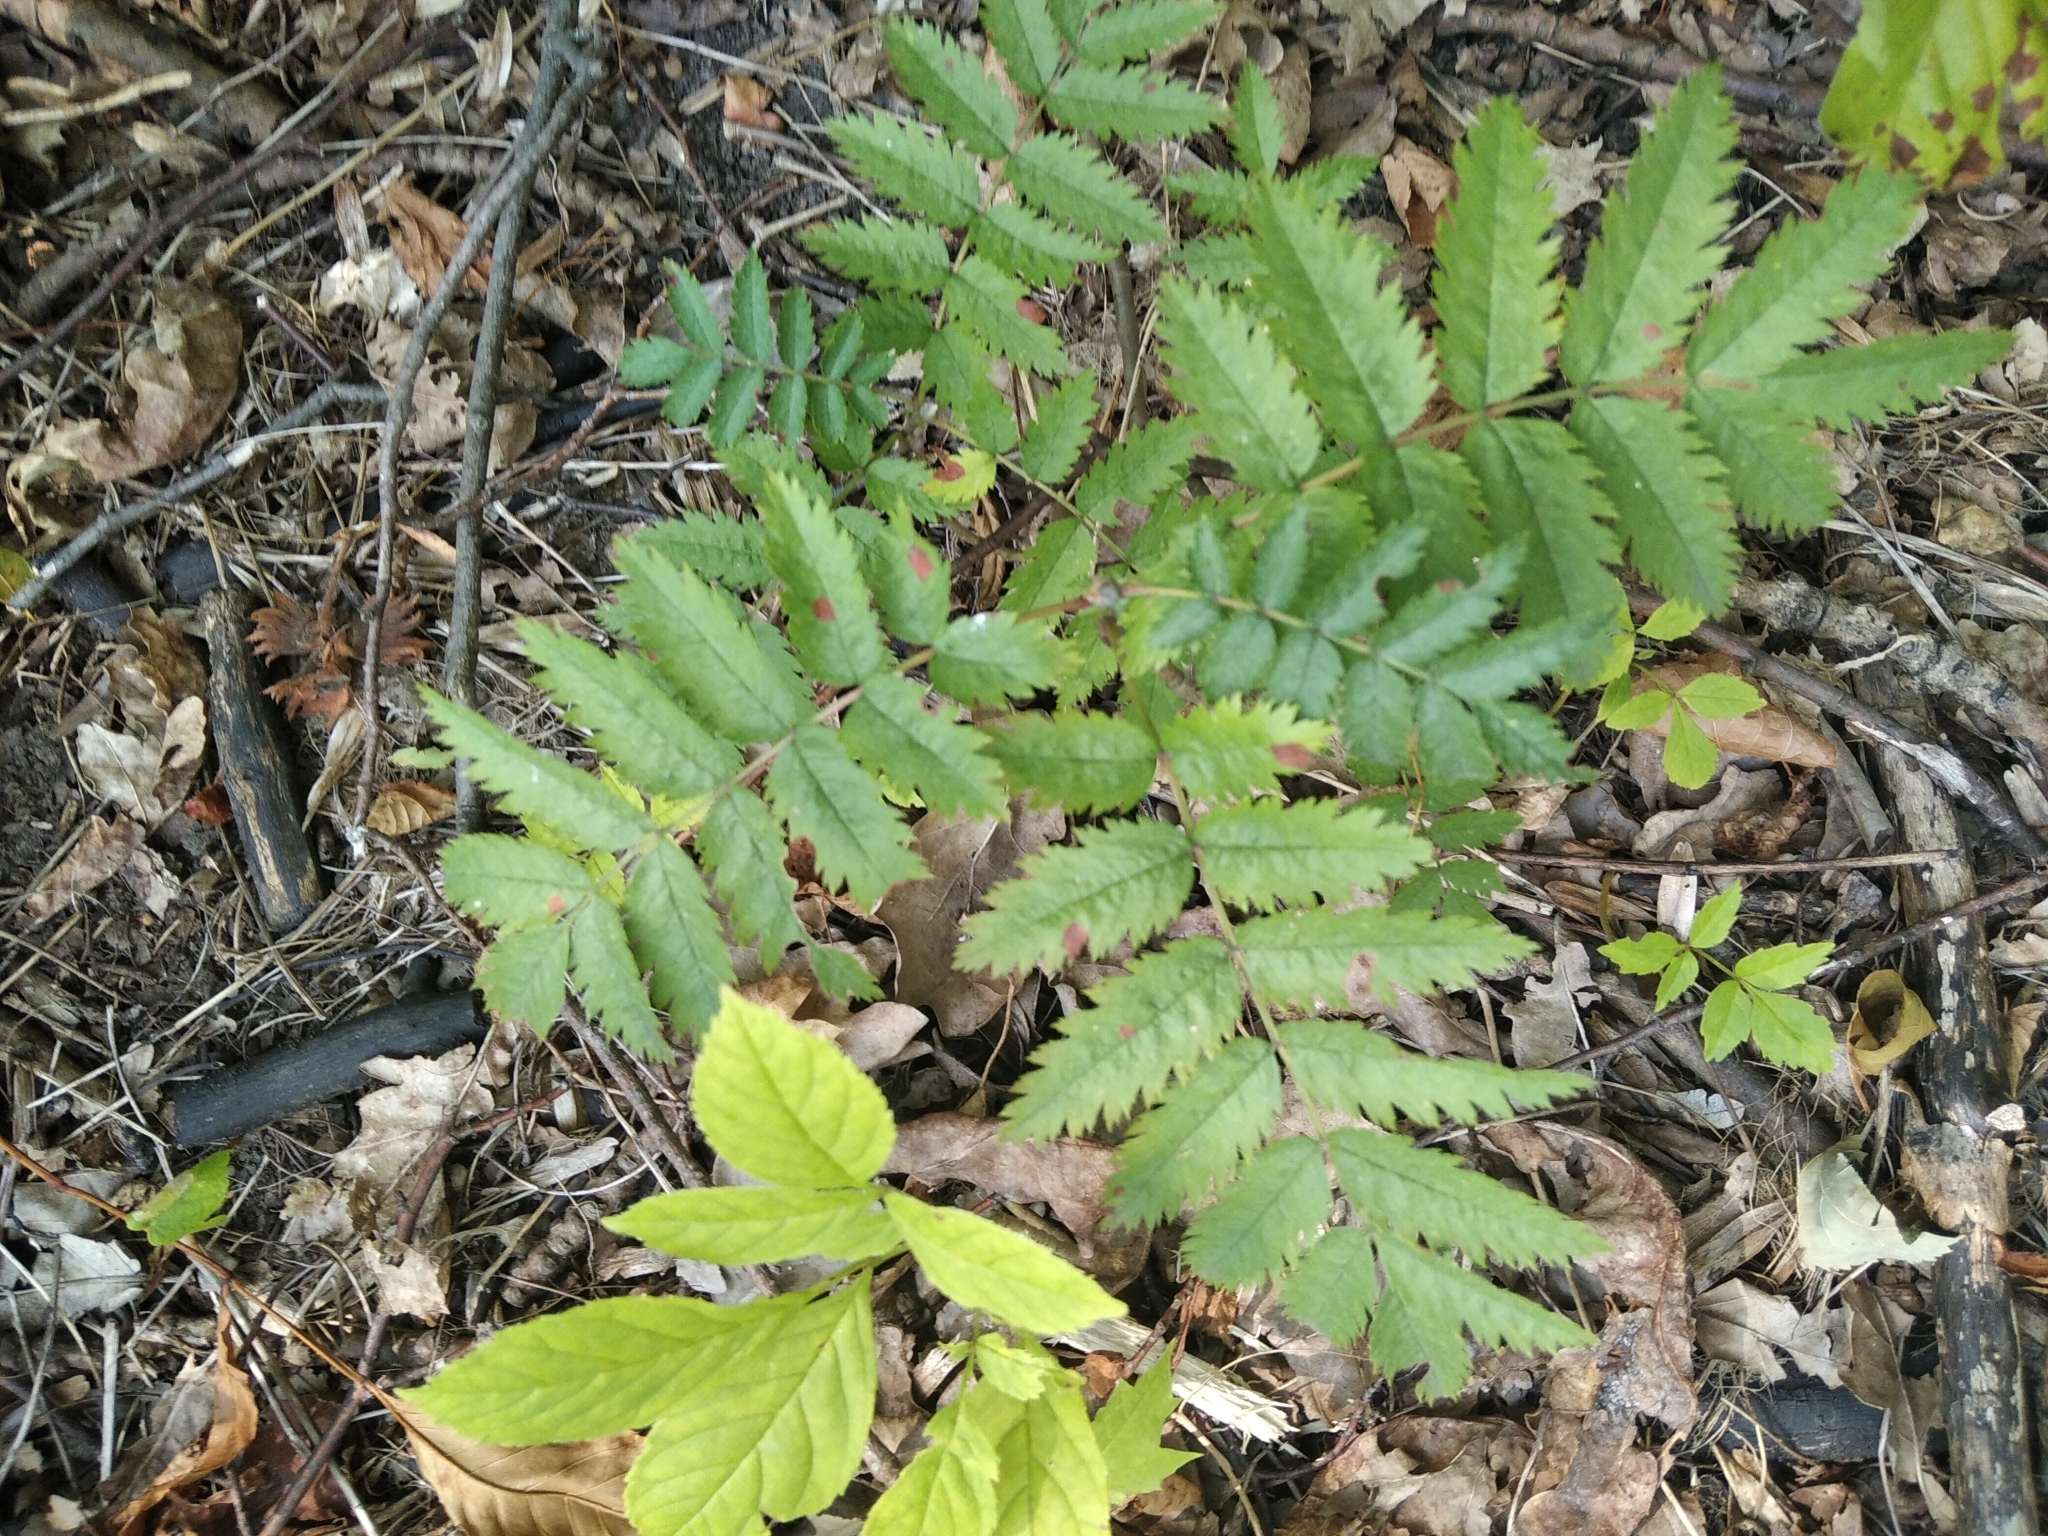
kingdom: Plantae
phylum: Tracheophyta
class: Magnoliopsida
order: Rosales
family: Rosaceae
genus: Sorbus
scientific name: Sorbus aucuparia
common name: Rowan
